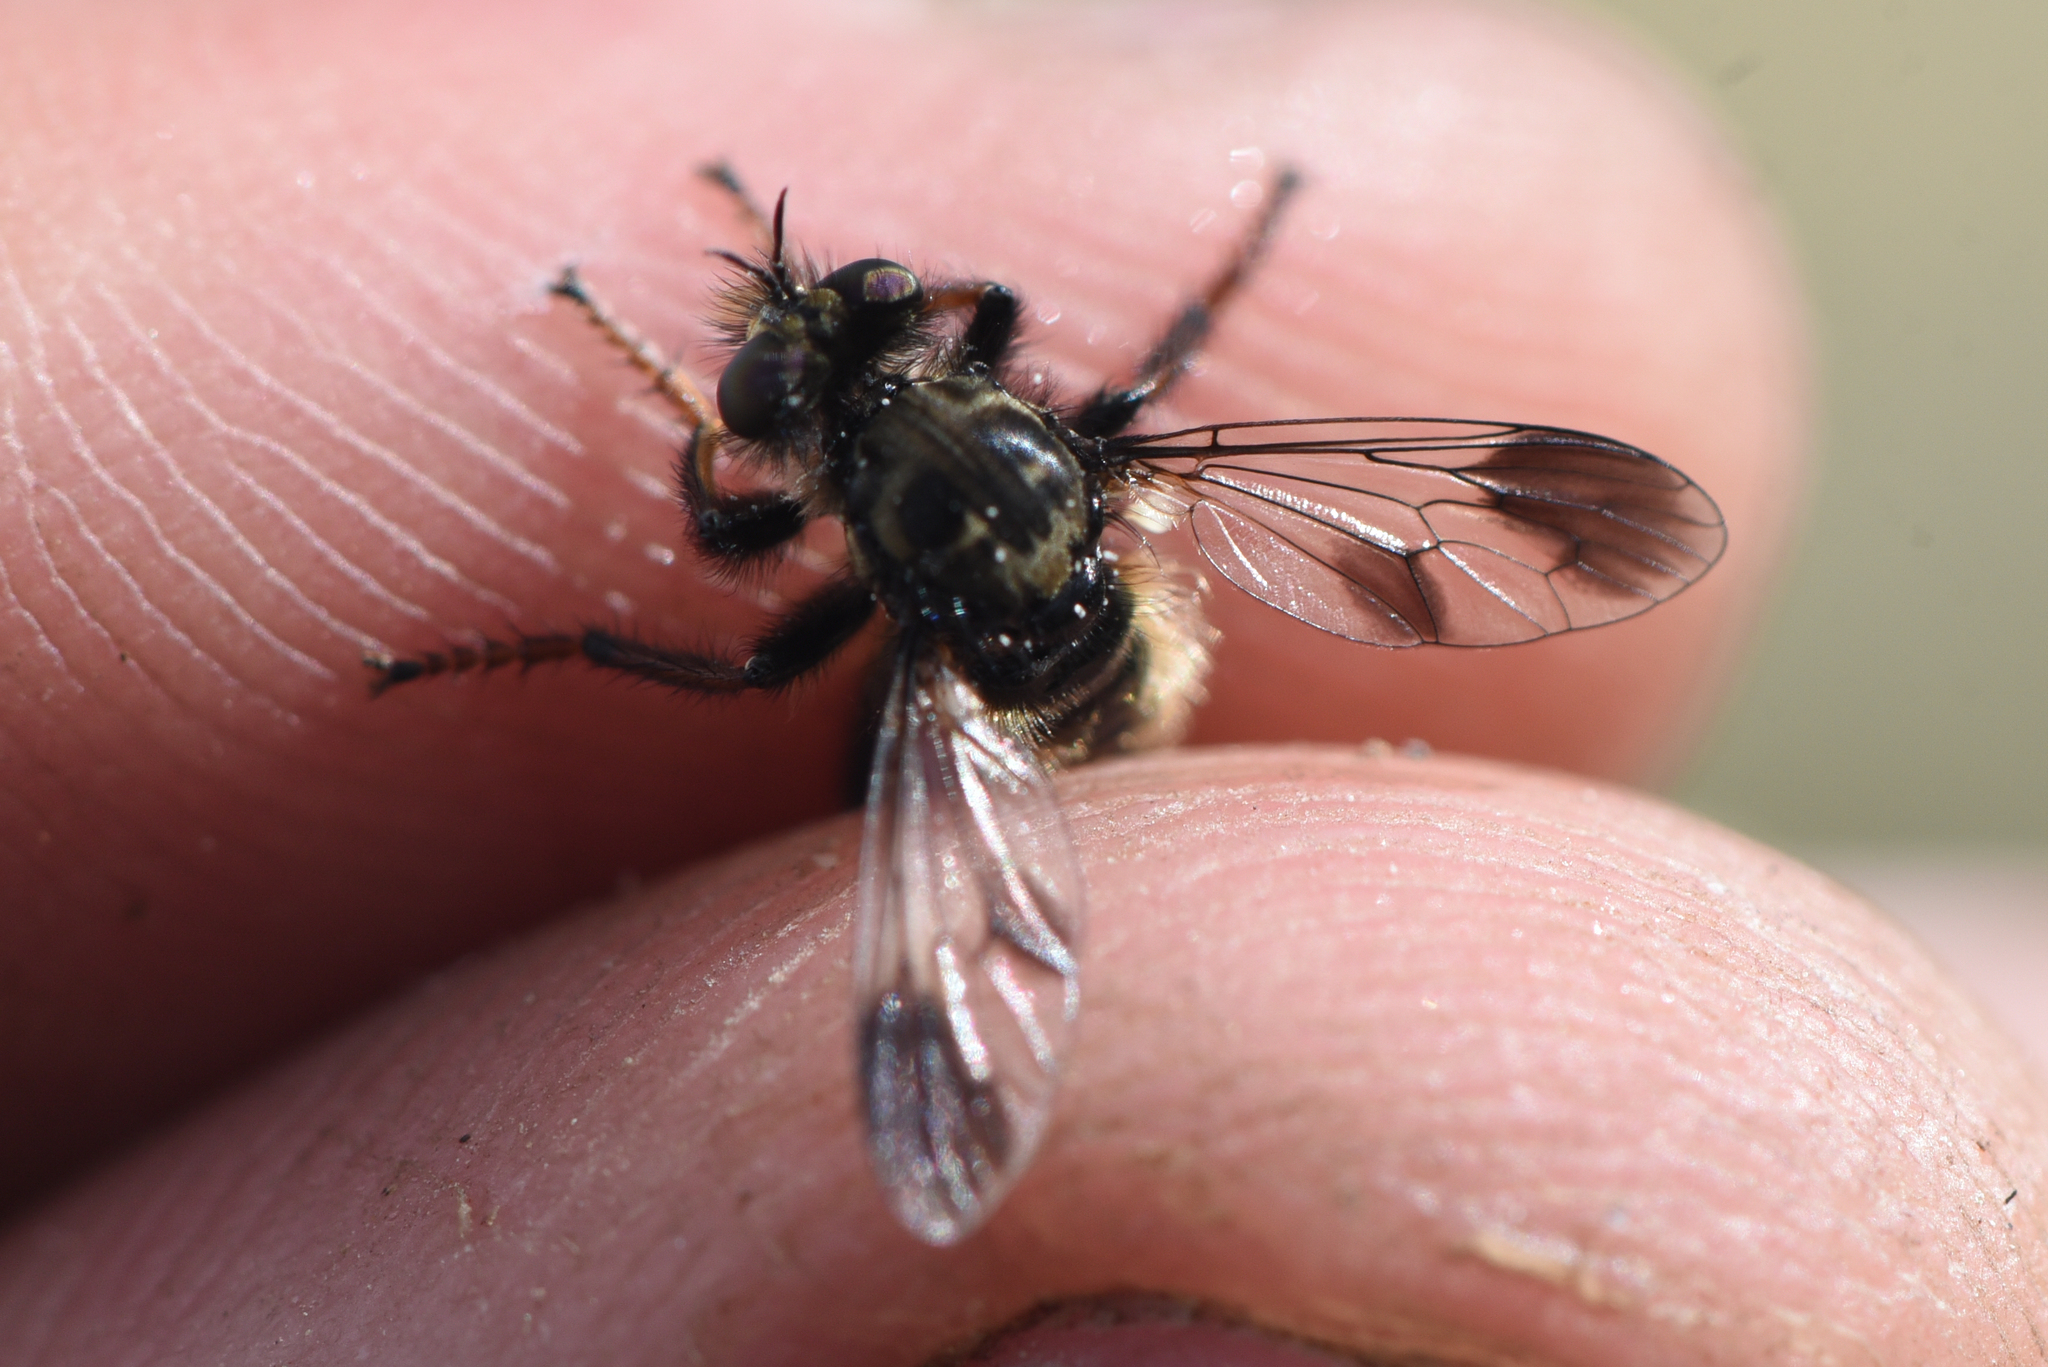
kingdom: Animalia
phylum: Arthropoda
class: Insecta
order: Diptera
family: Asilidae
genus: Cyrtopogon
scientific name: Cyrtopogon bimaculus
